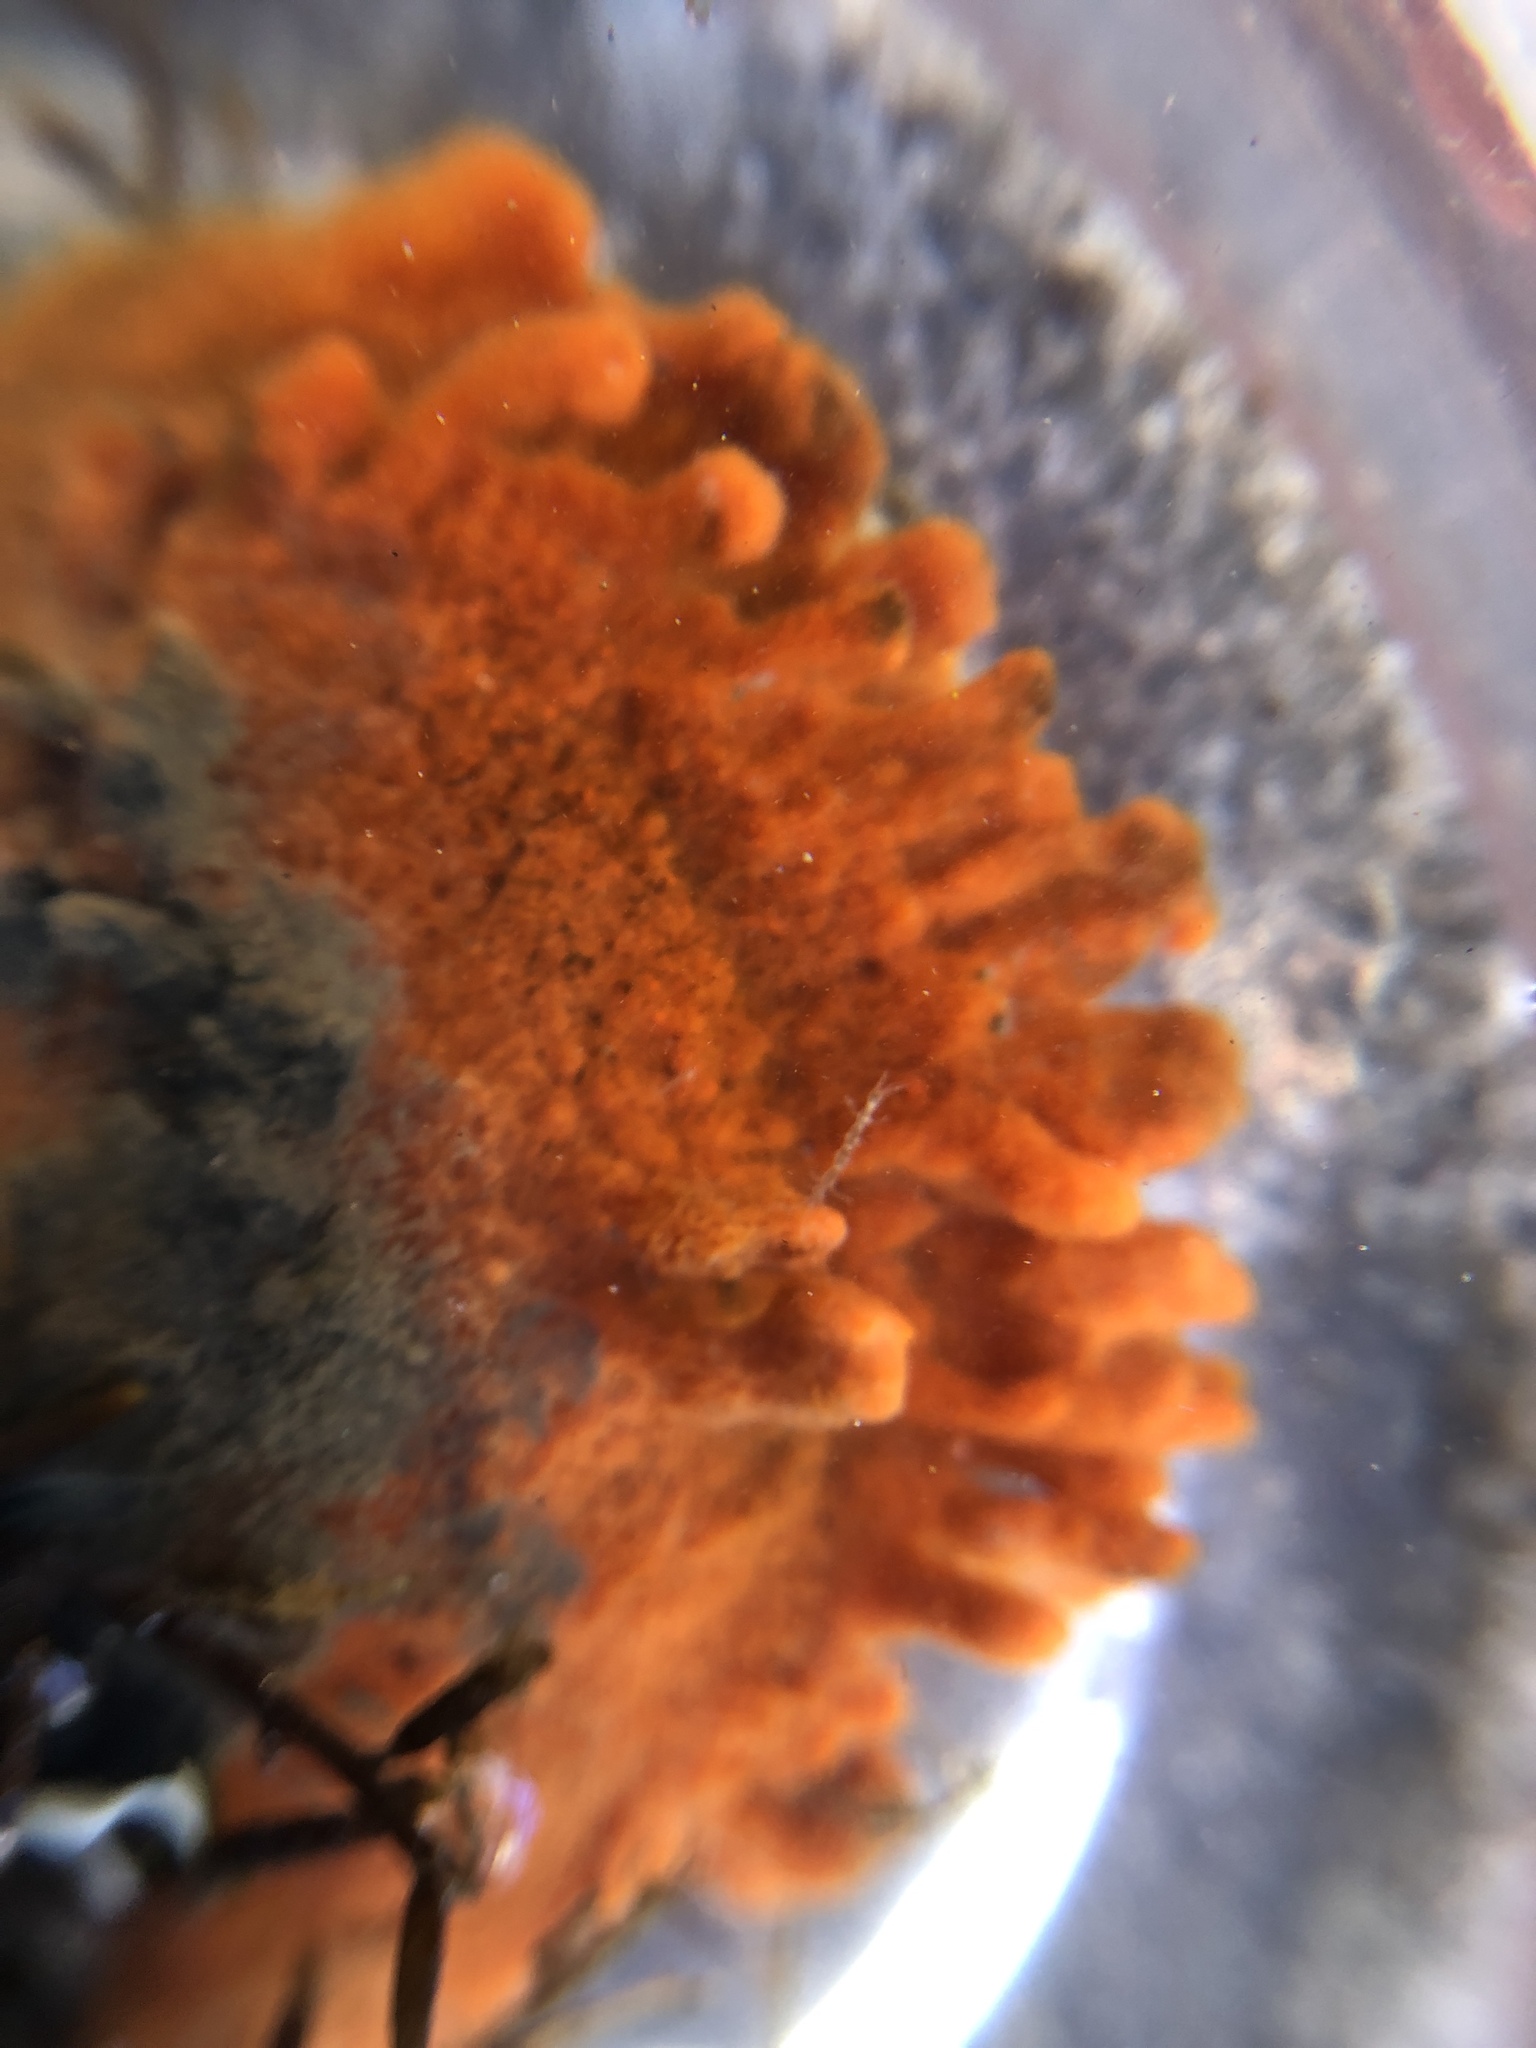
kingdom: Animalia
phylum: Porifera
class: Demospongiae
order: Poecilosclerida
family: Microcionidae
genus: Clathria
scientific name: Clathria prolifera
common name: Red beard sponge
